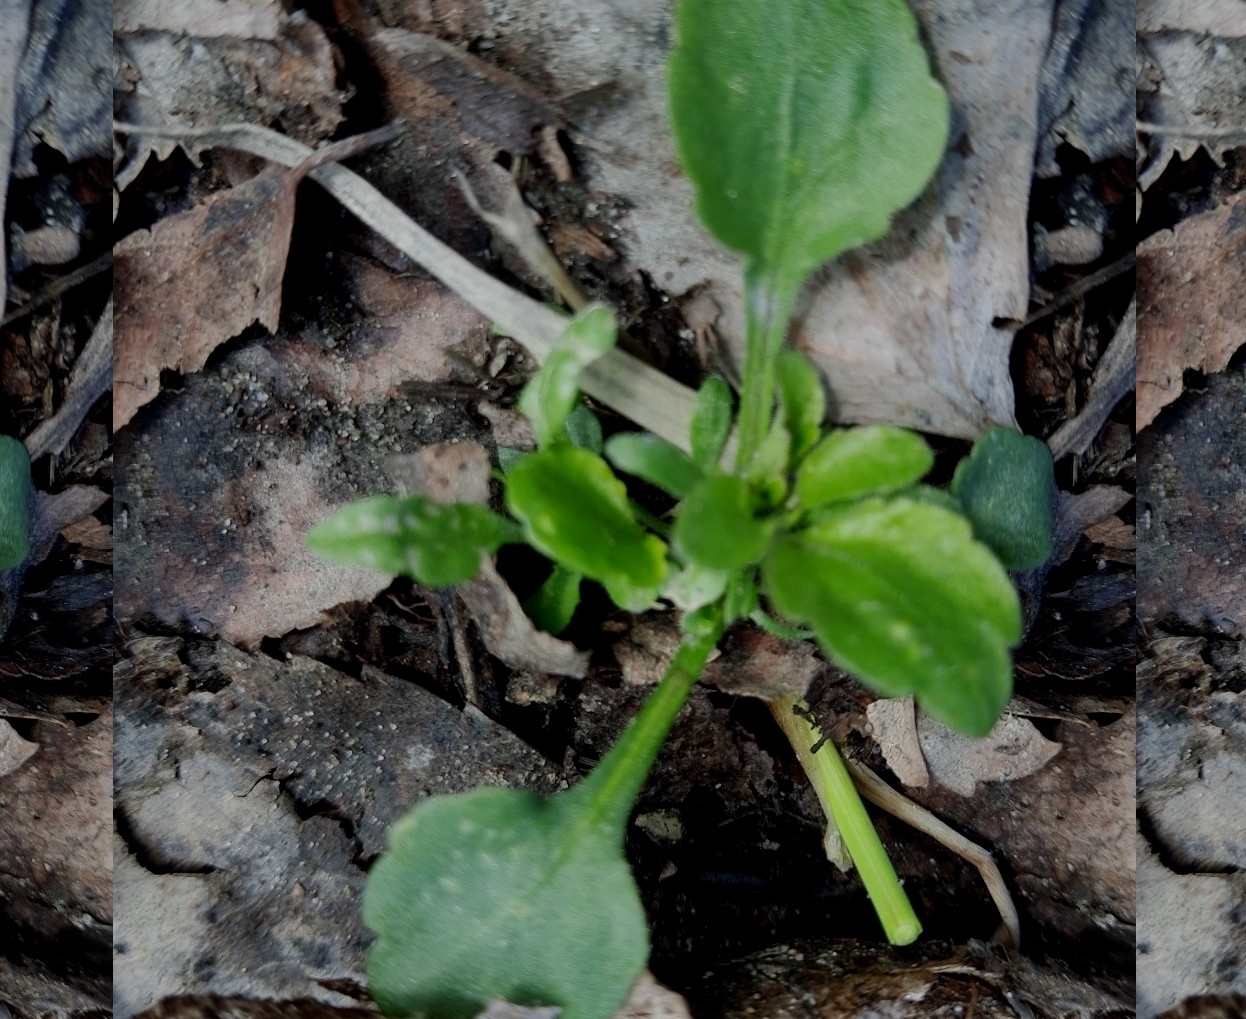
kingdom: Plantae
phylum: Tracheophyta
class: Magnoliopsida
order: Malpighiales
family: Violaceae
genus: Viola
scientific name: Viola arvensis
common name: Field pansy
